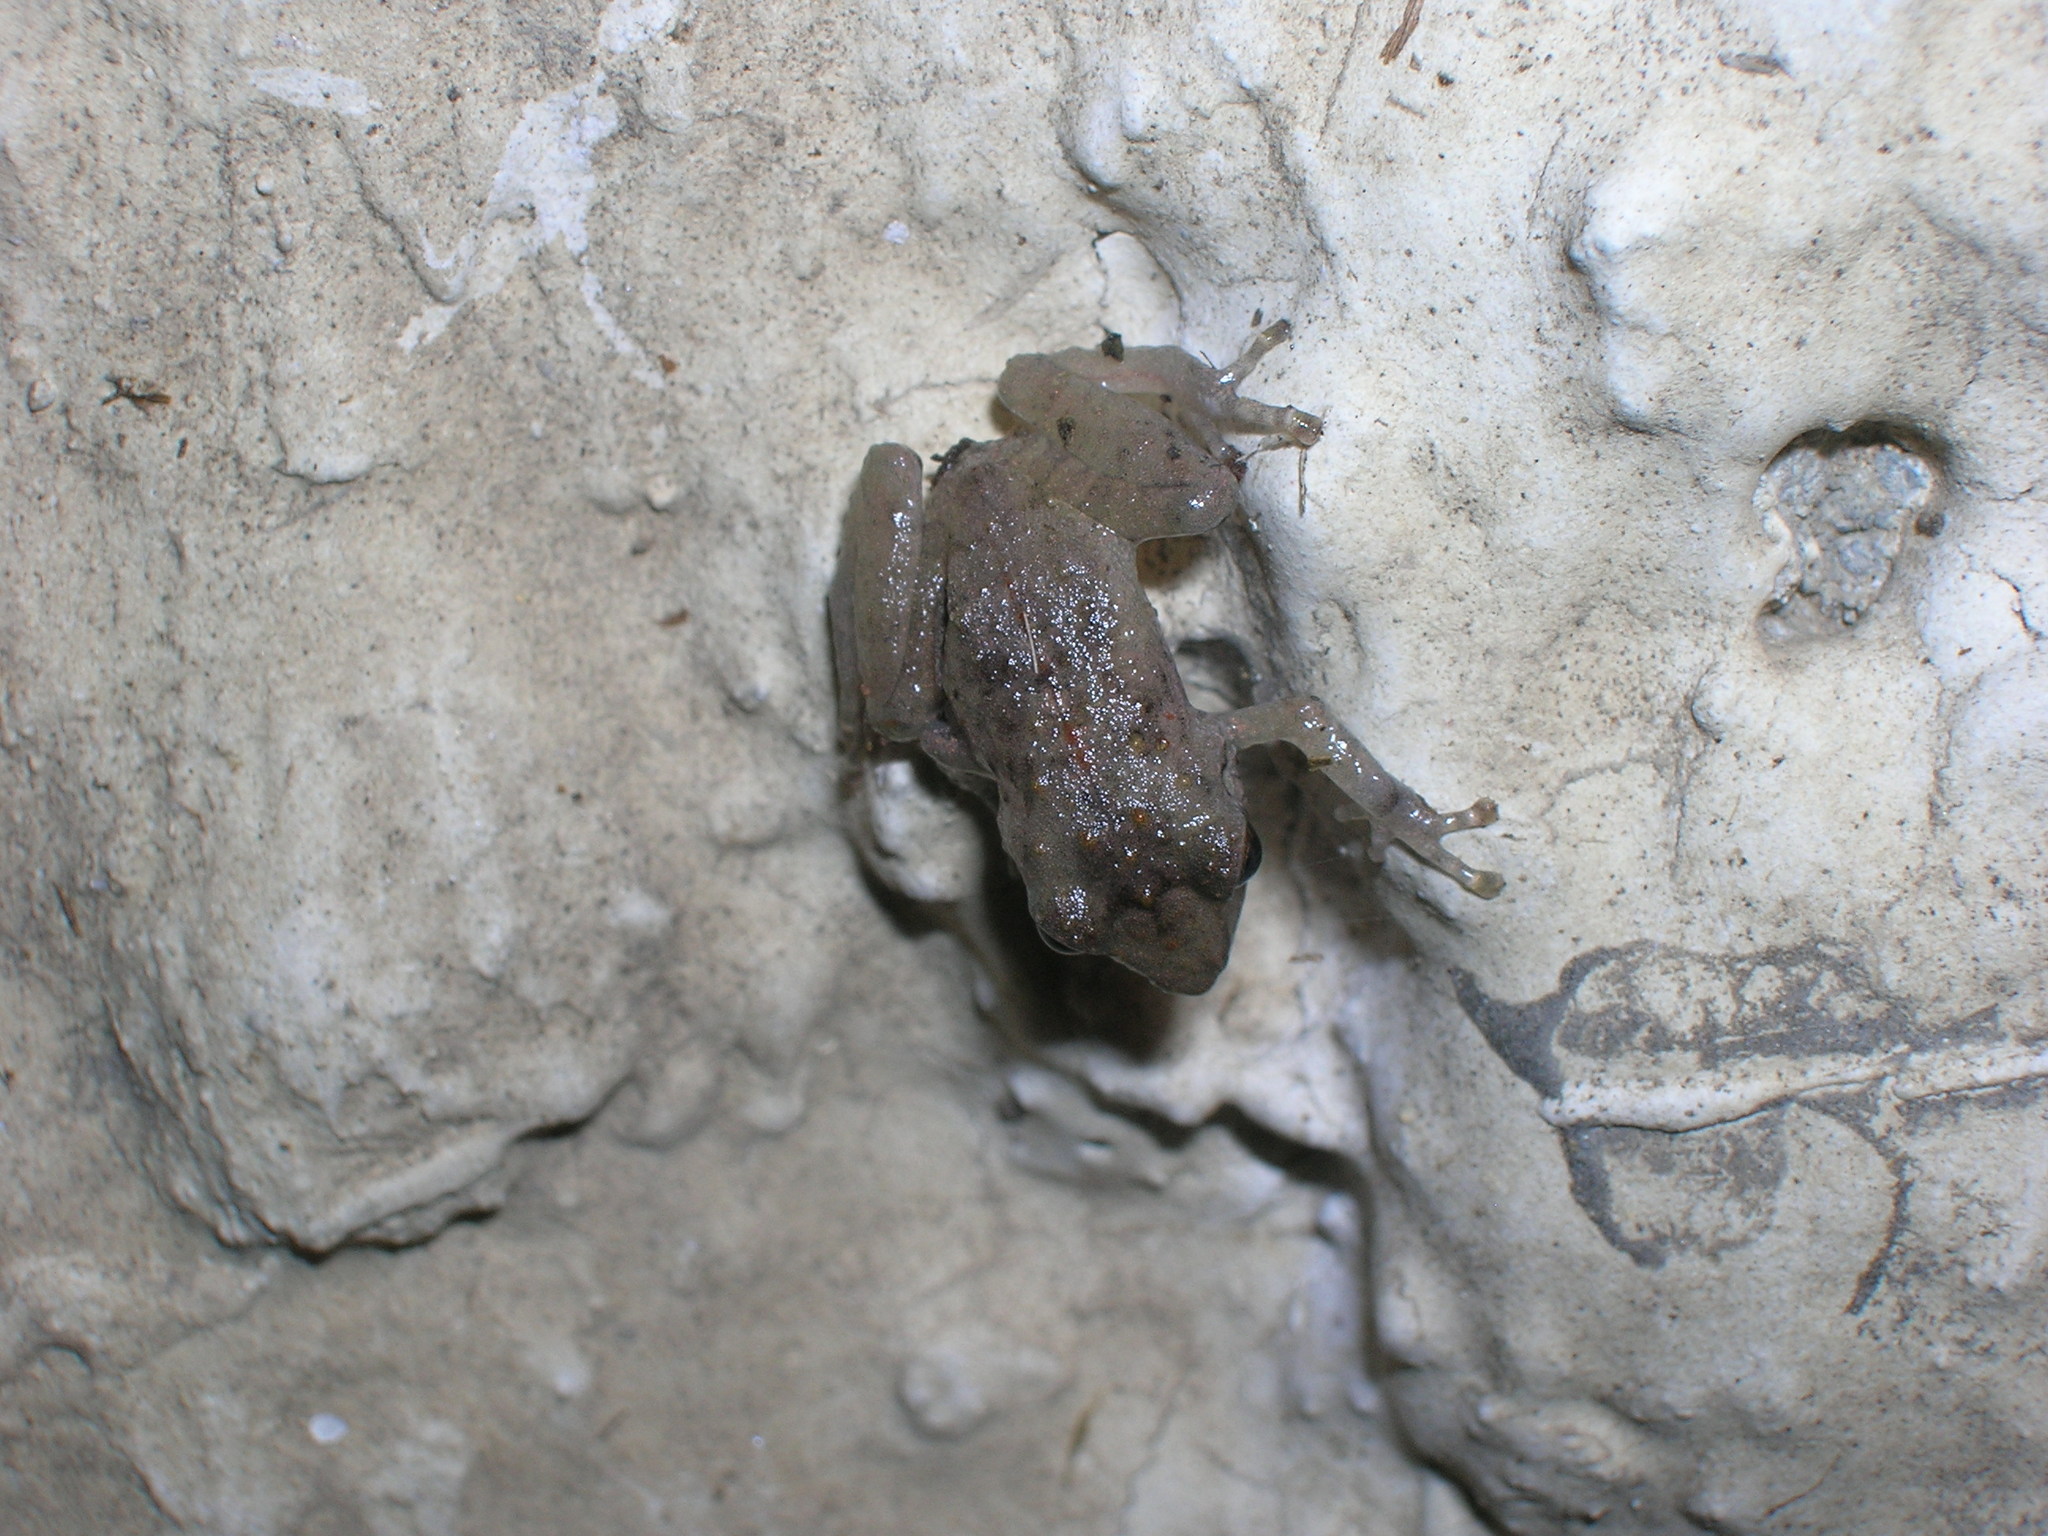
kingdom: Animalia
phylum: Chordata
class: Amphibia
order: Anura
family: Craugastoridae
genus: Pristimantis
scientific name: Pristimantis cajamarcensis
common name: Cajamarca robber frog
